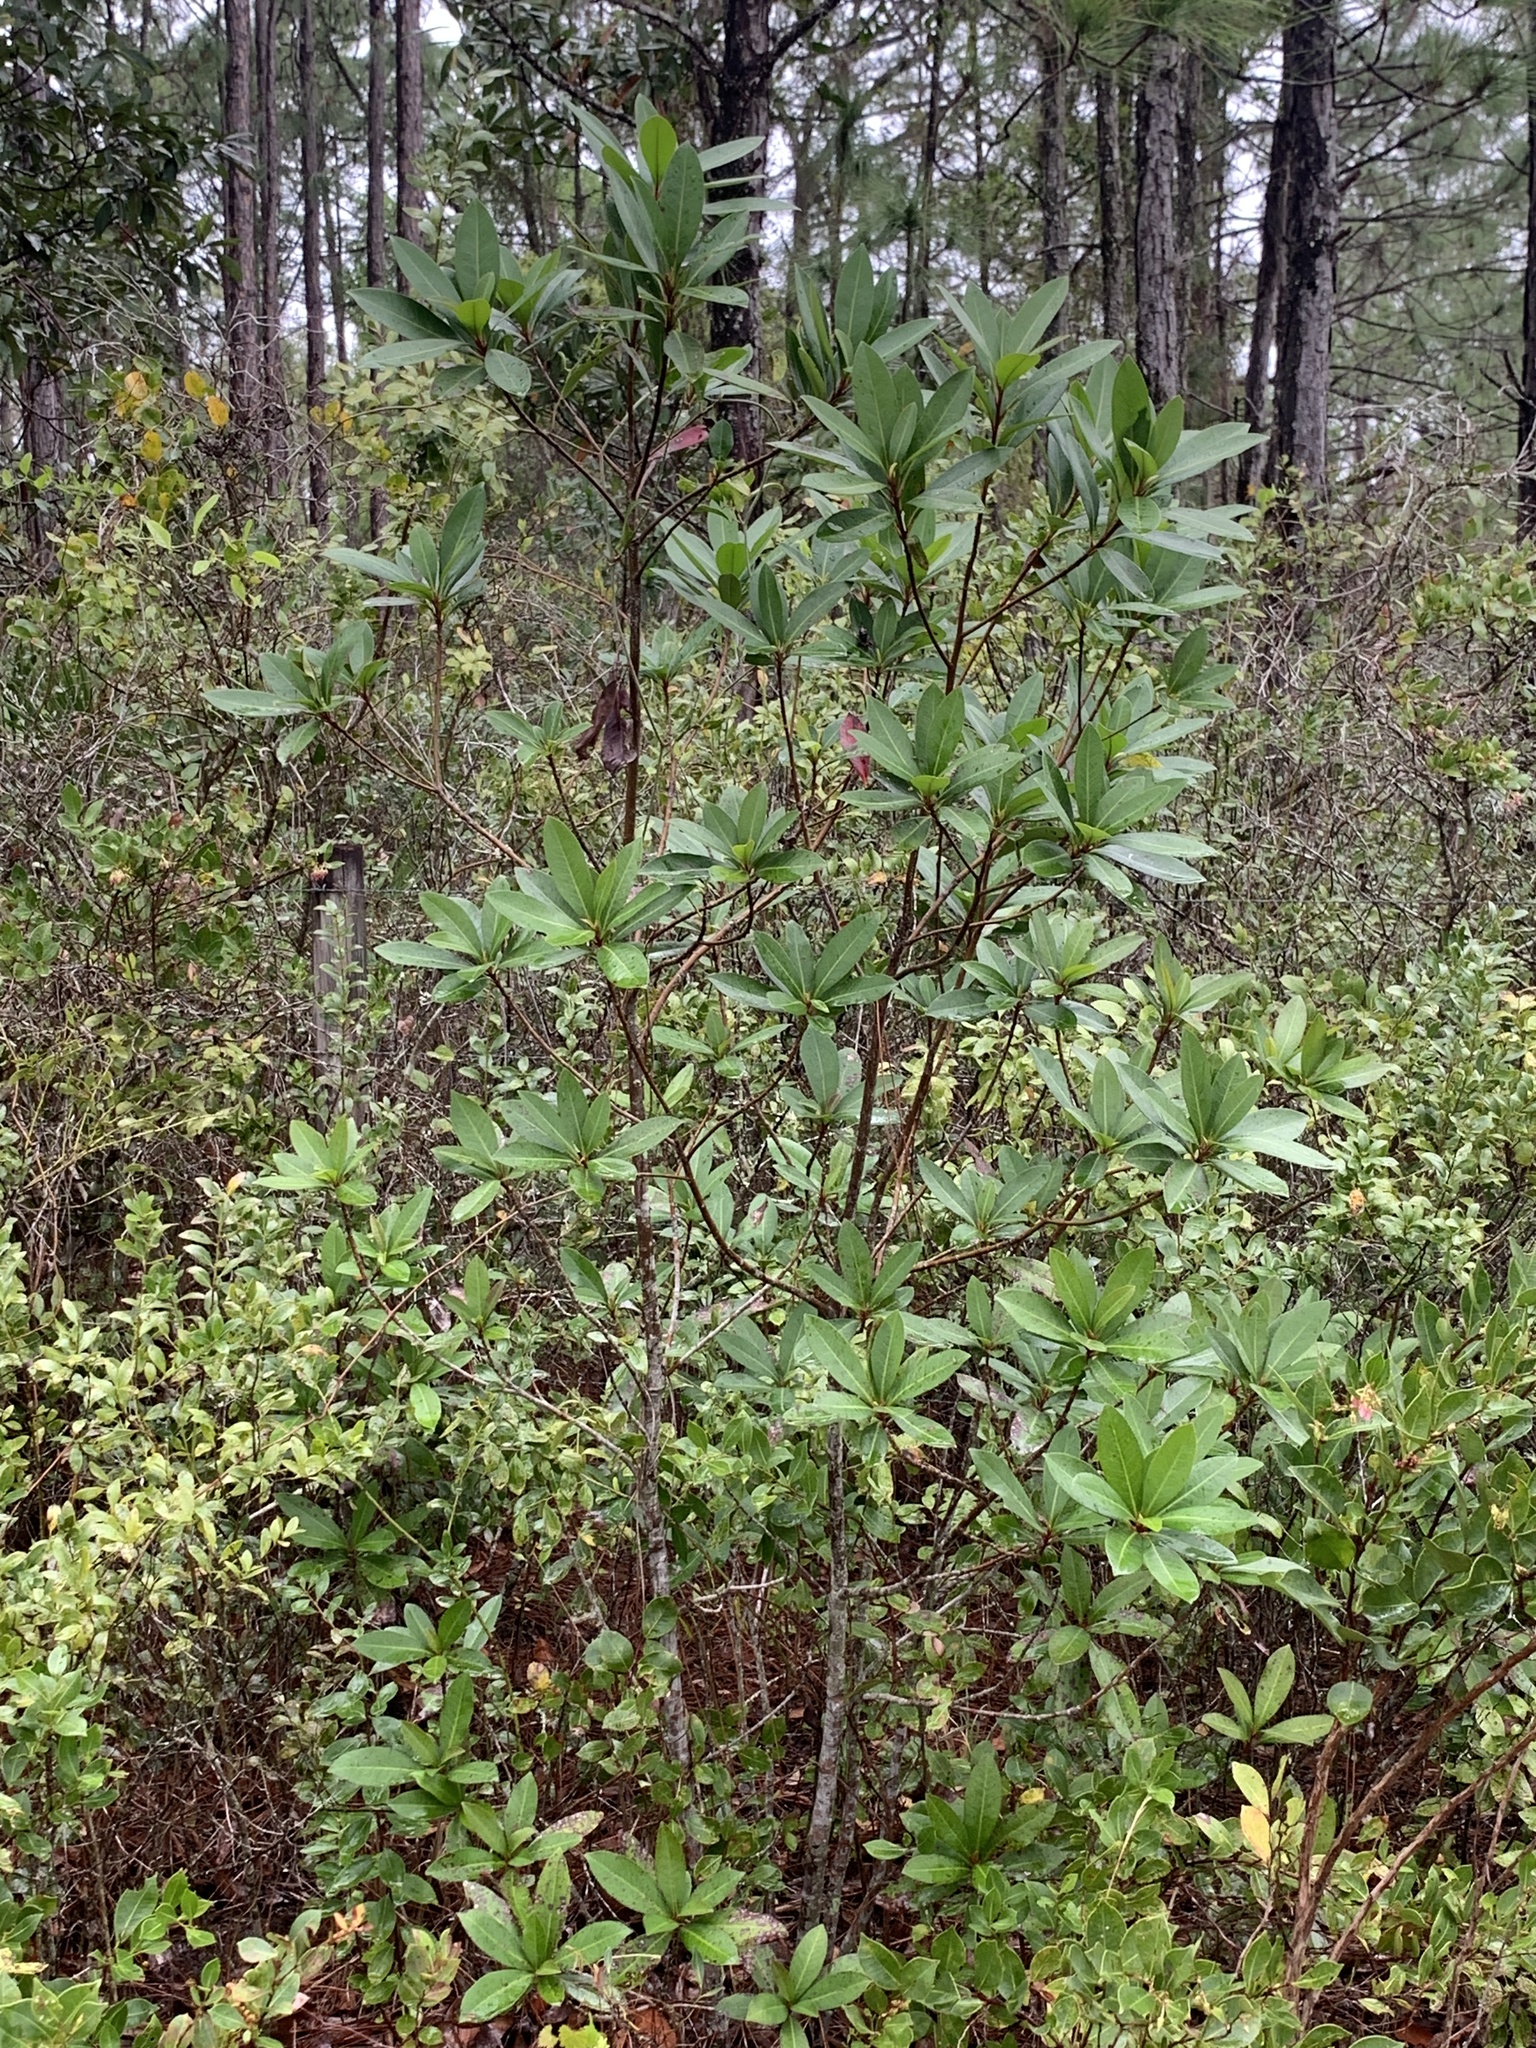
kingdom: Plantae
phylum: Tracheophyta
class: Magnoliopsida
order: Ericales
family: Theaceae
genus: Gordonia
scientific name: Gordonia lasianthus
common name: Loblolly bay
